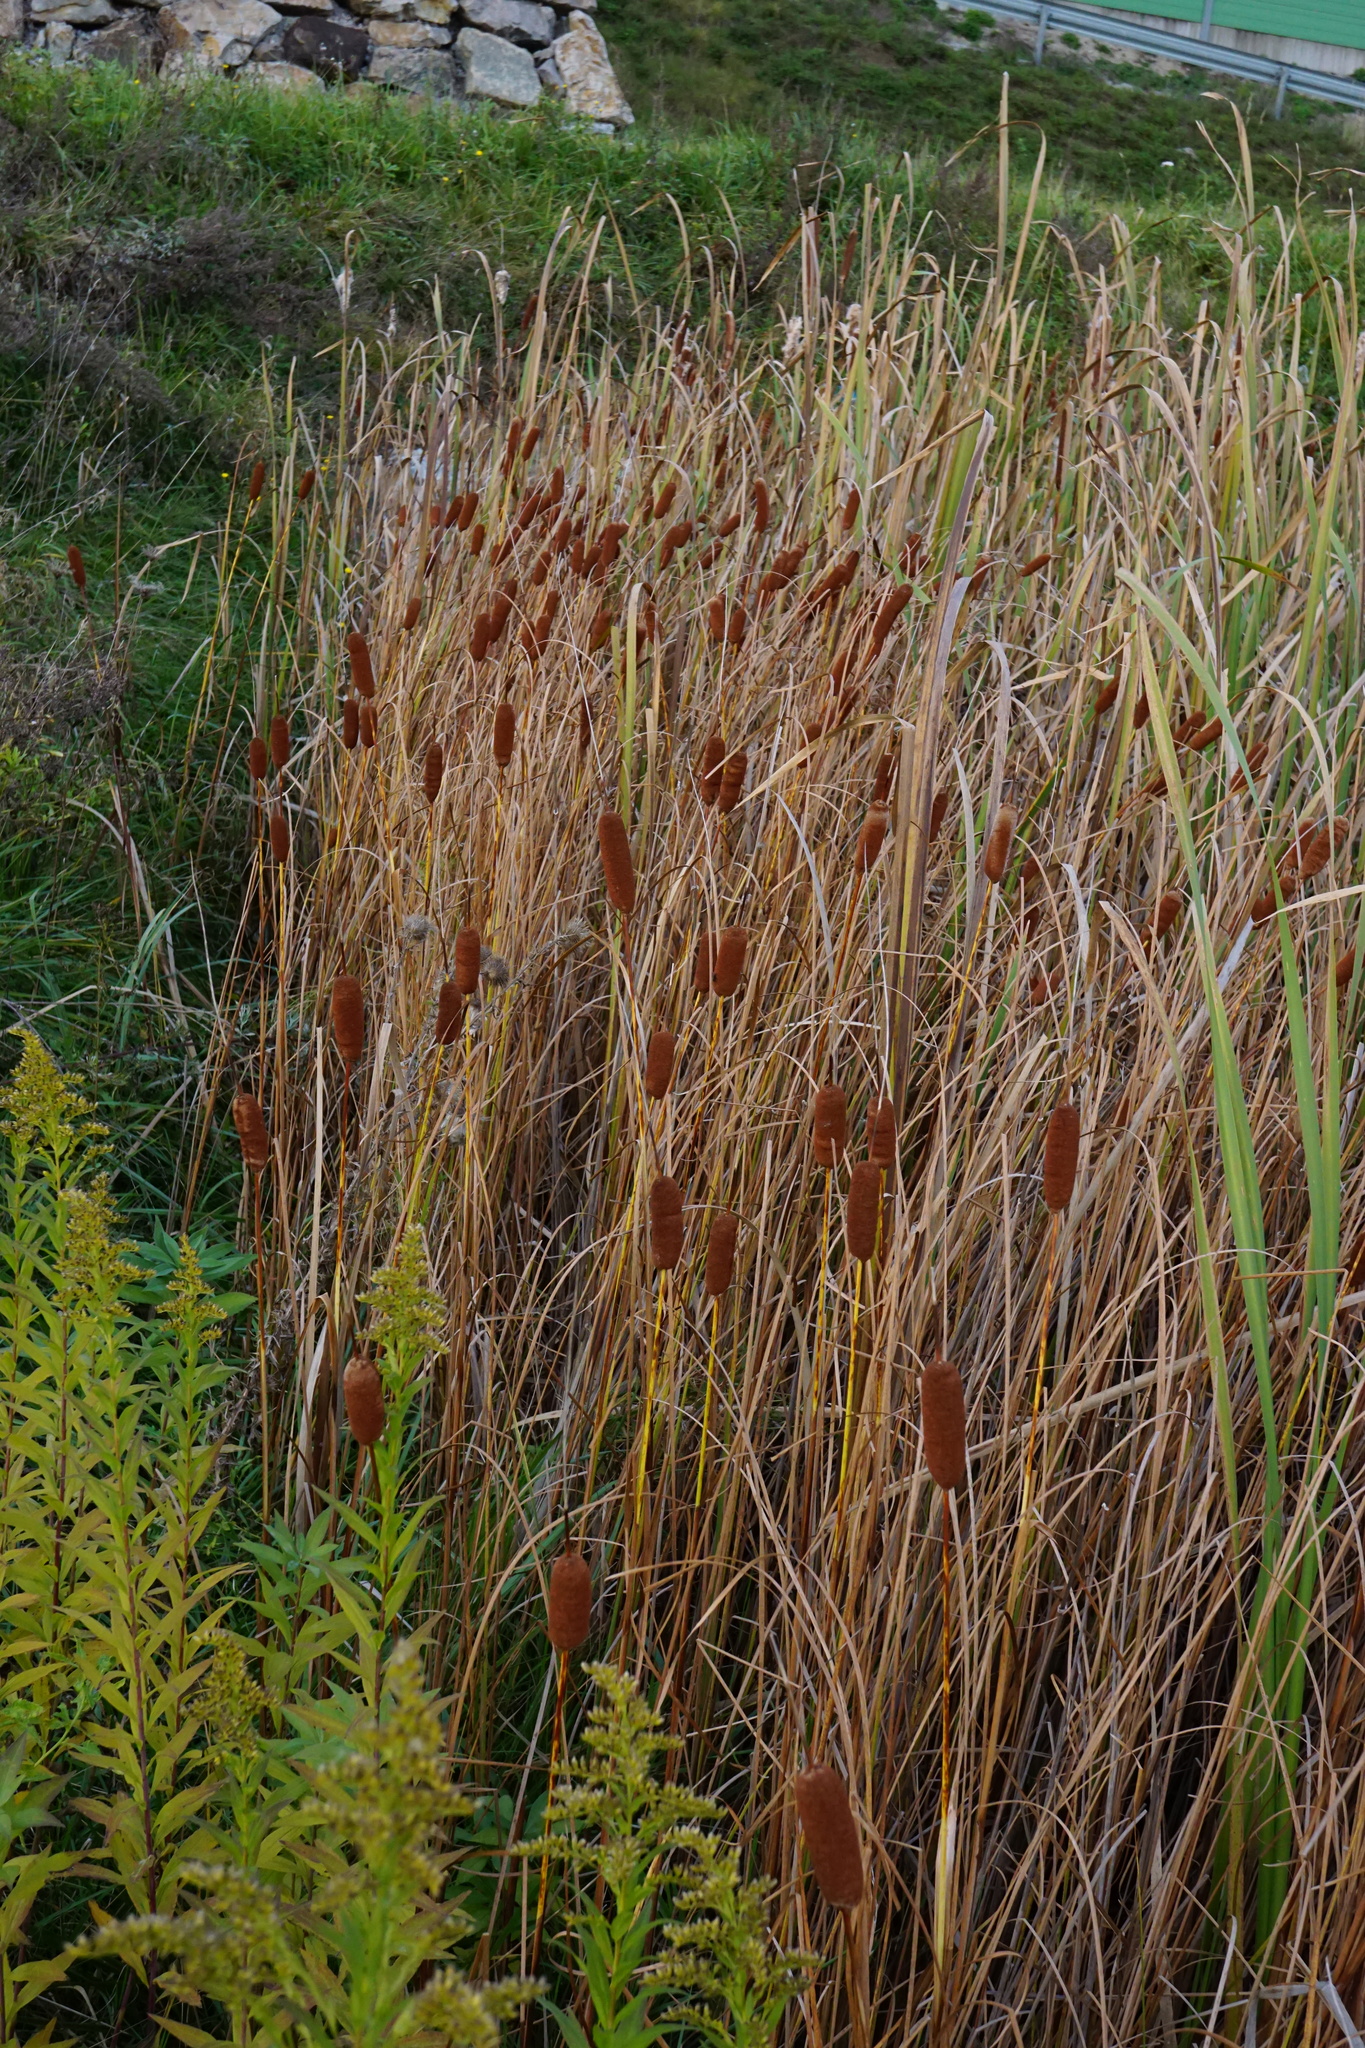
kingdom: Plantae
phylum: Tracheophyta
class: Liliopsida
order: Poales
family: Typhaceae
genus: Typha
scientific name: Typha laxmannii
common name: Laxman’s bulrush
